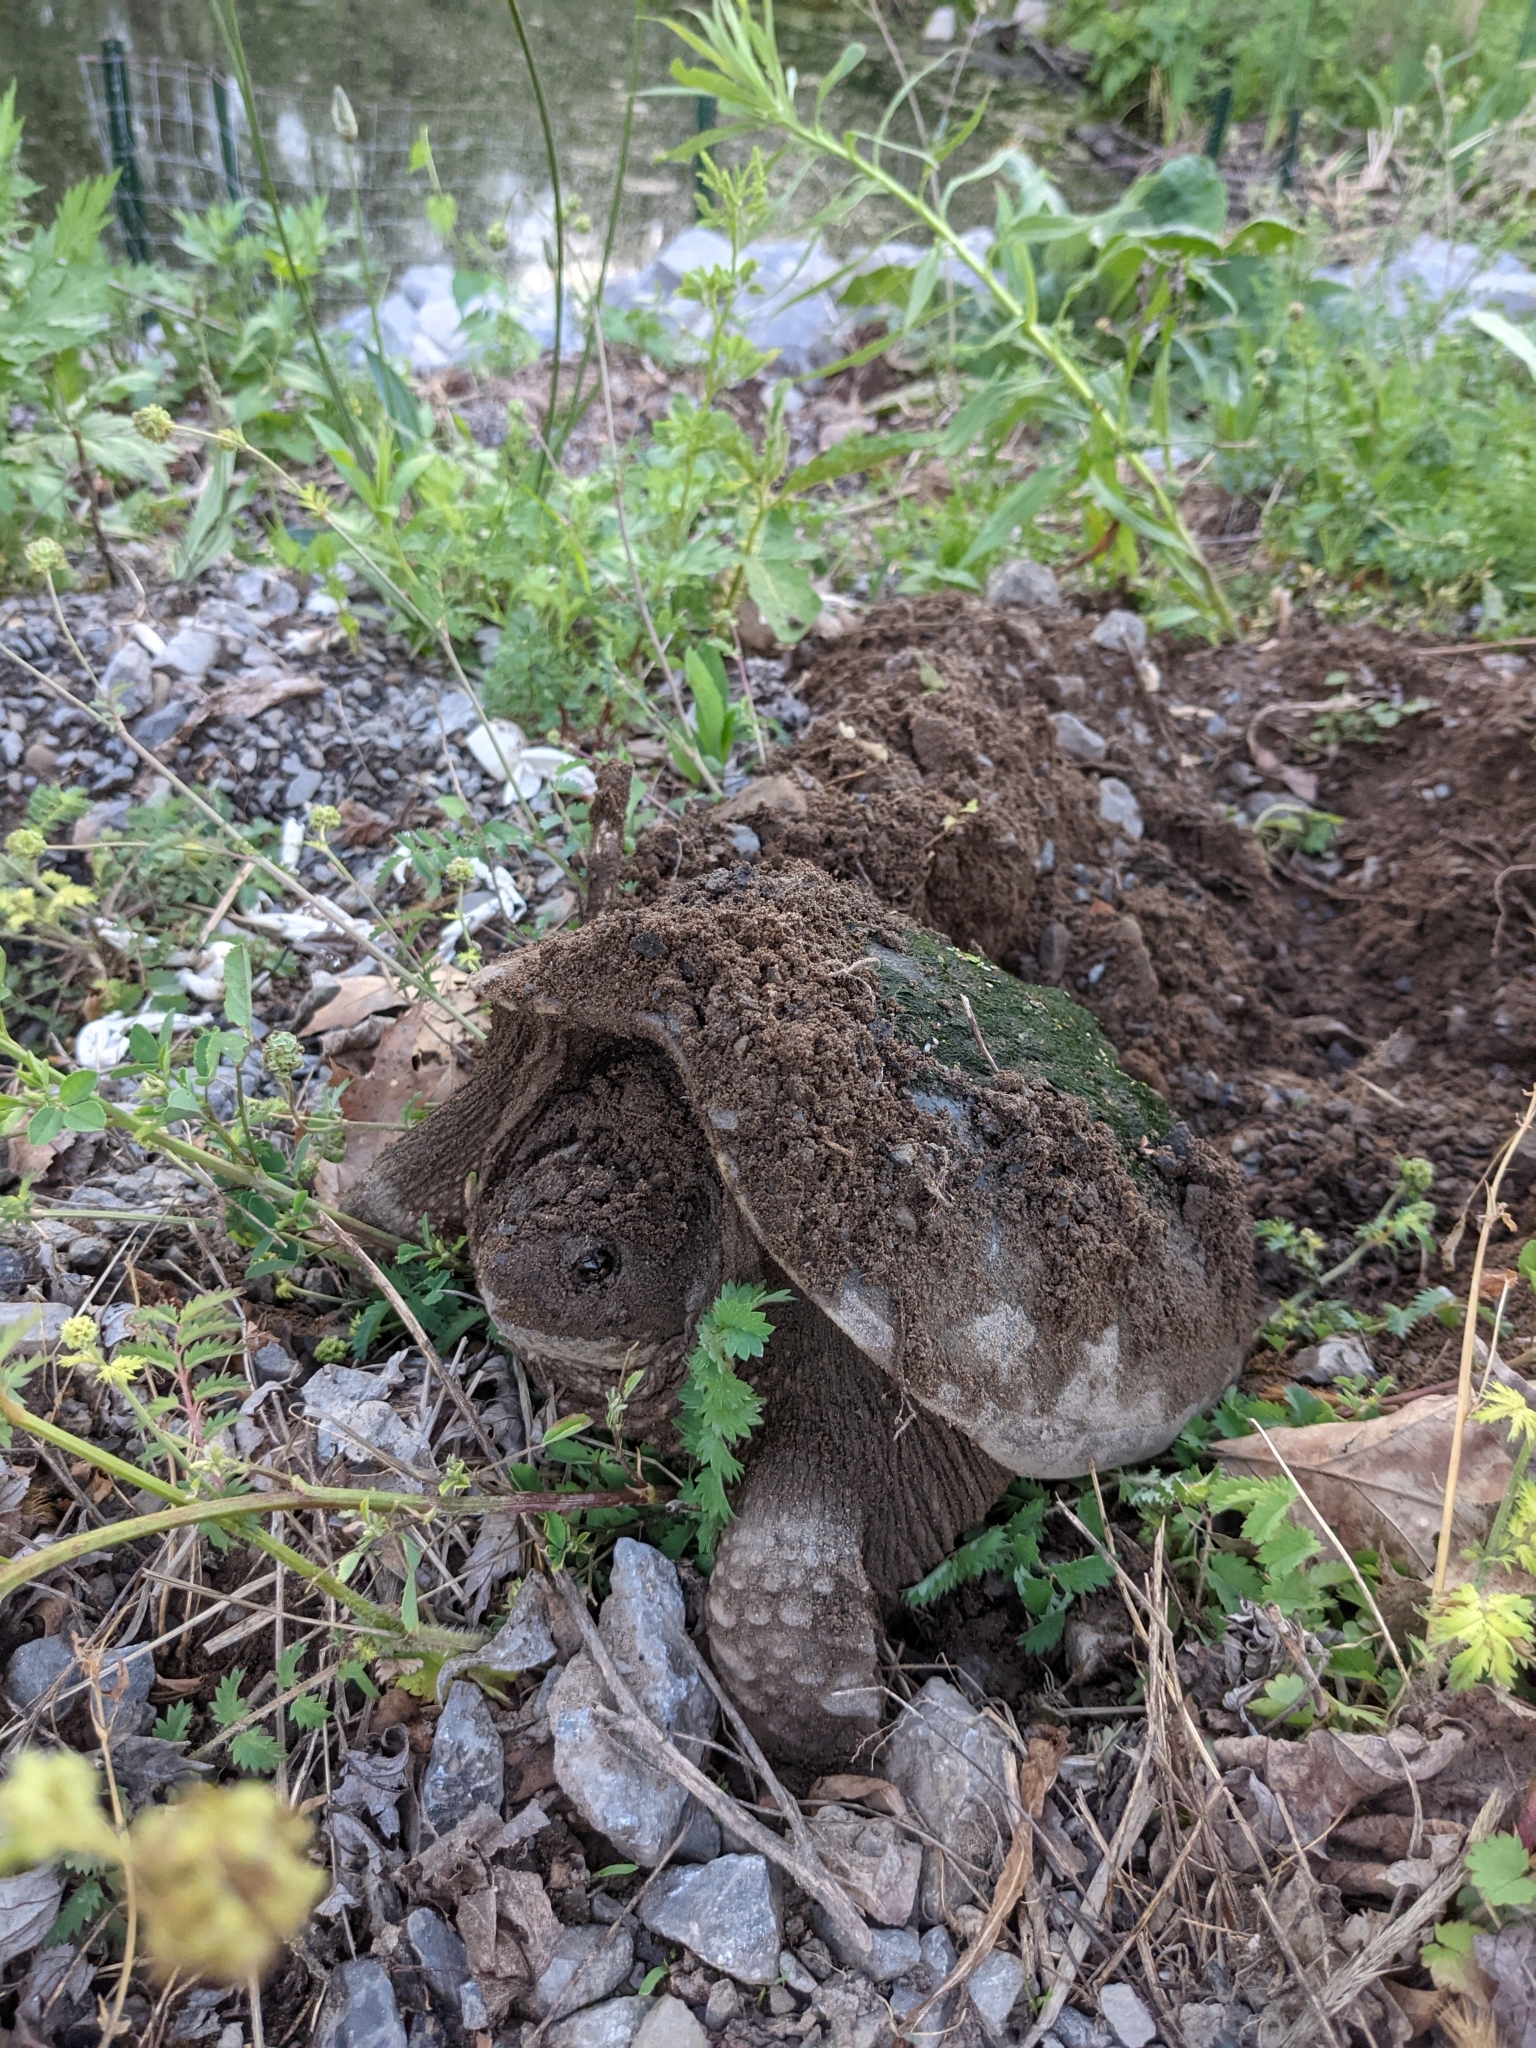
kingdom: Animalia
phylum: Chordata
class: Testudines
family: Chelydridae
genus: Chelydra
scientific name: Chelydra serpentina
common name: Common snapping turtle
